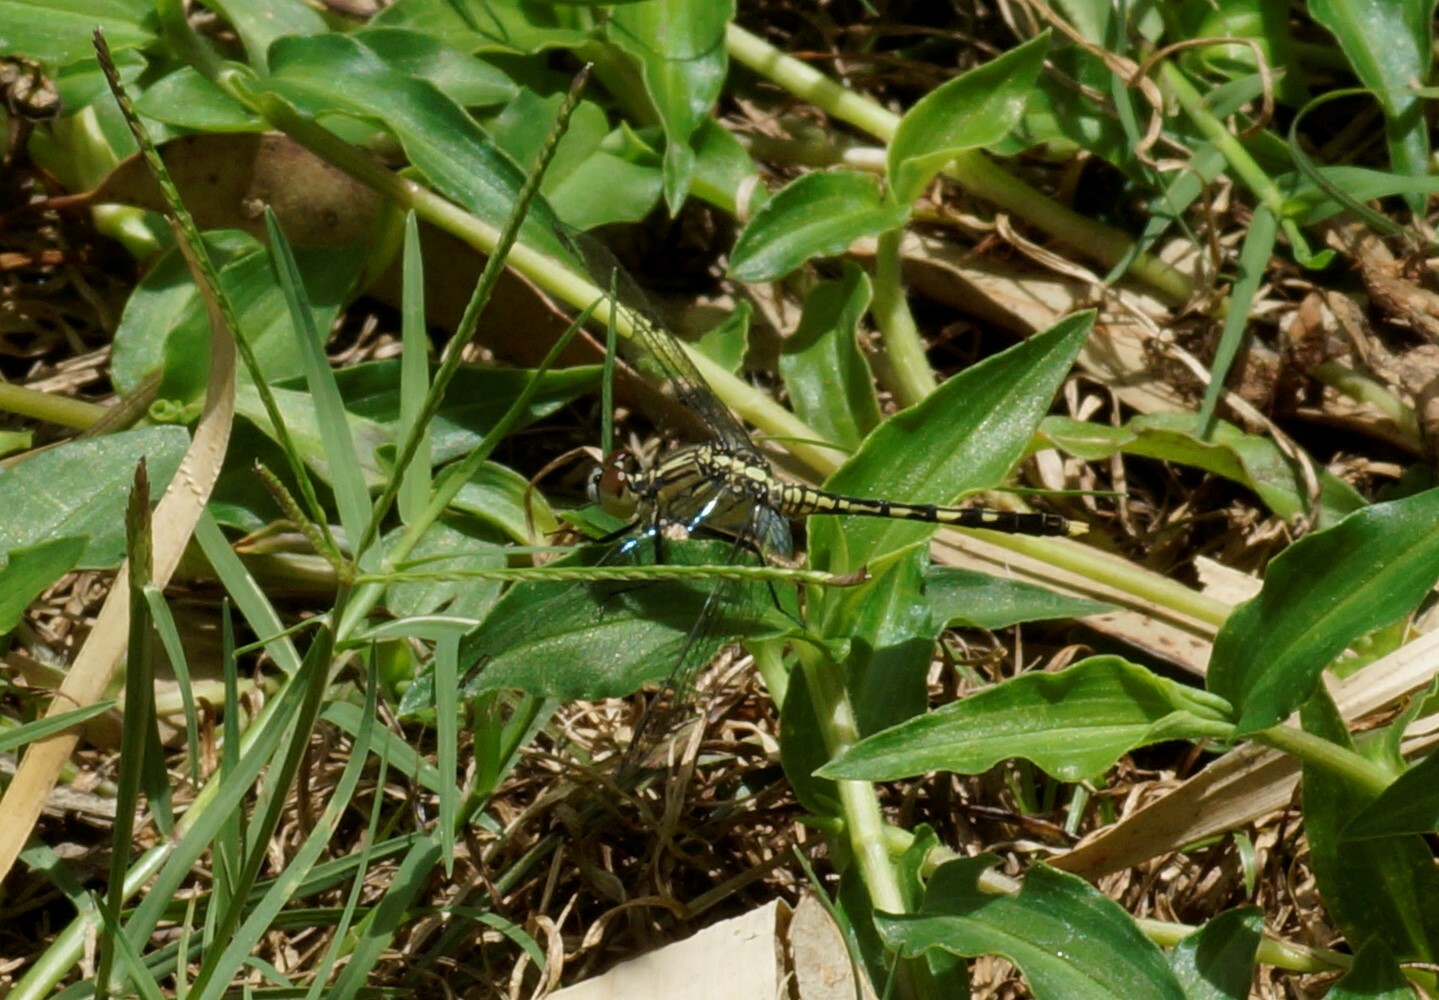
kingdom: Animalia
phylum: Arthropoda
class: Insecta
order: Odonata
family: Libellulidae
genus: Diplacodes
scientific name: Diplacodes trivialis
